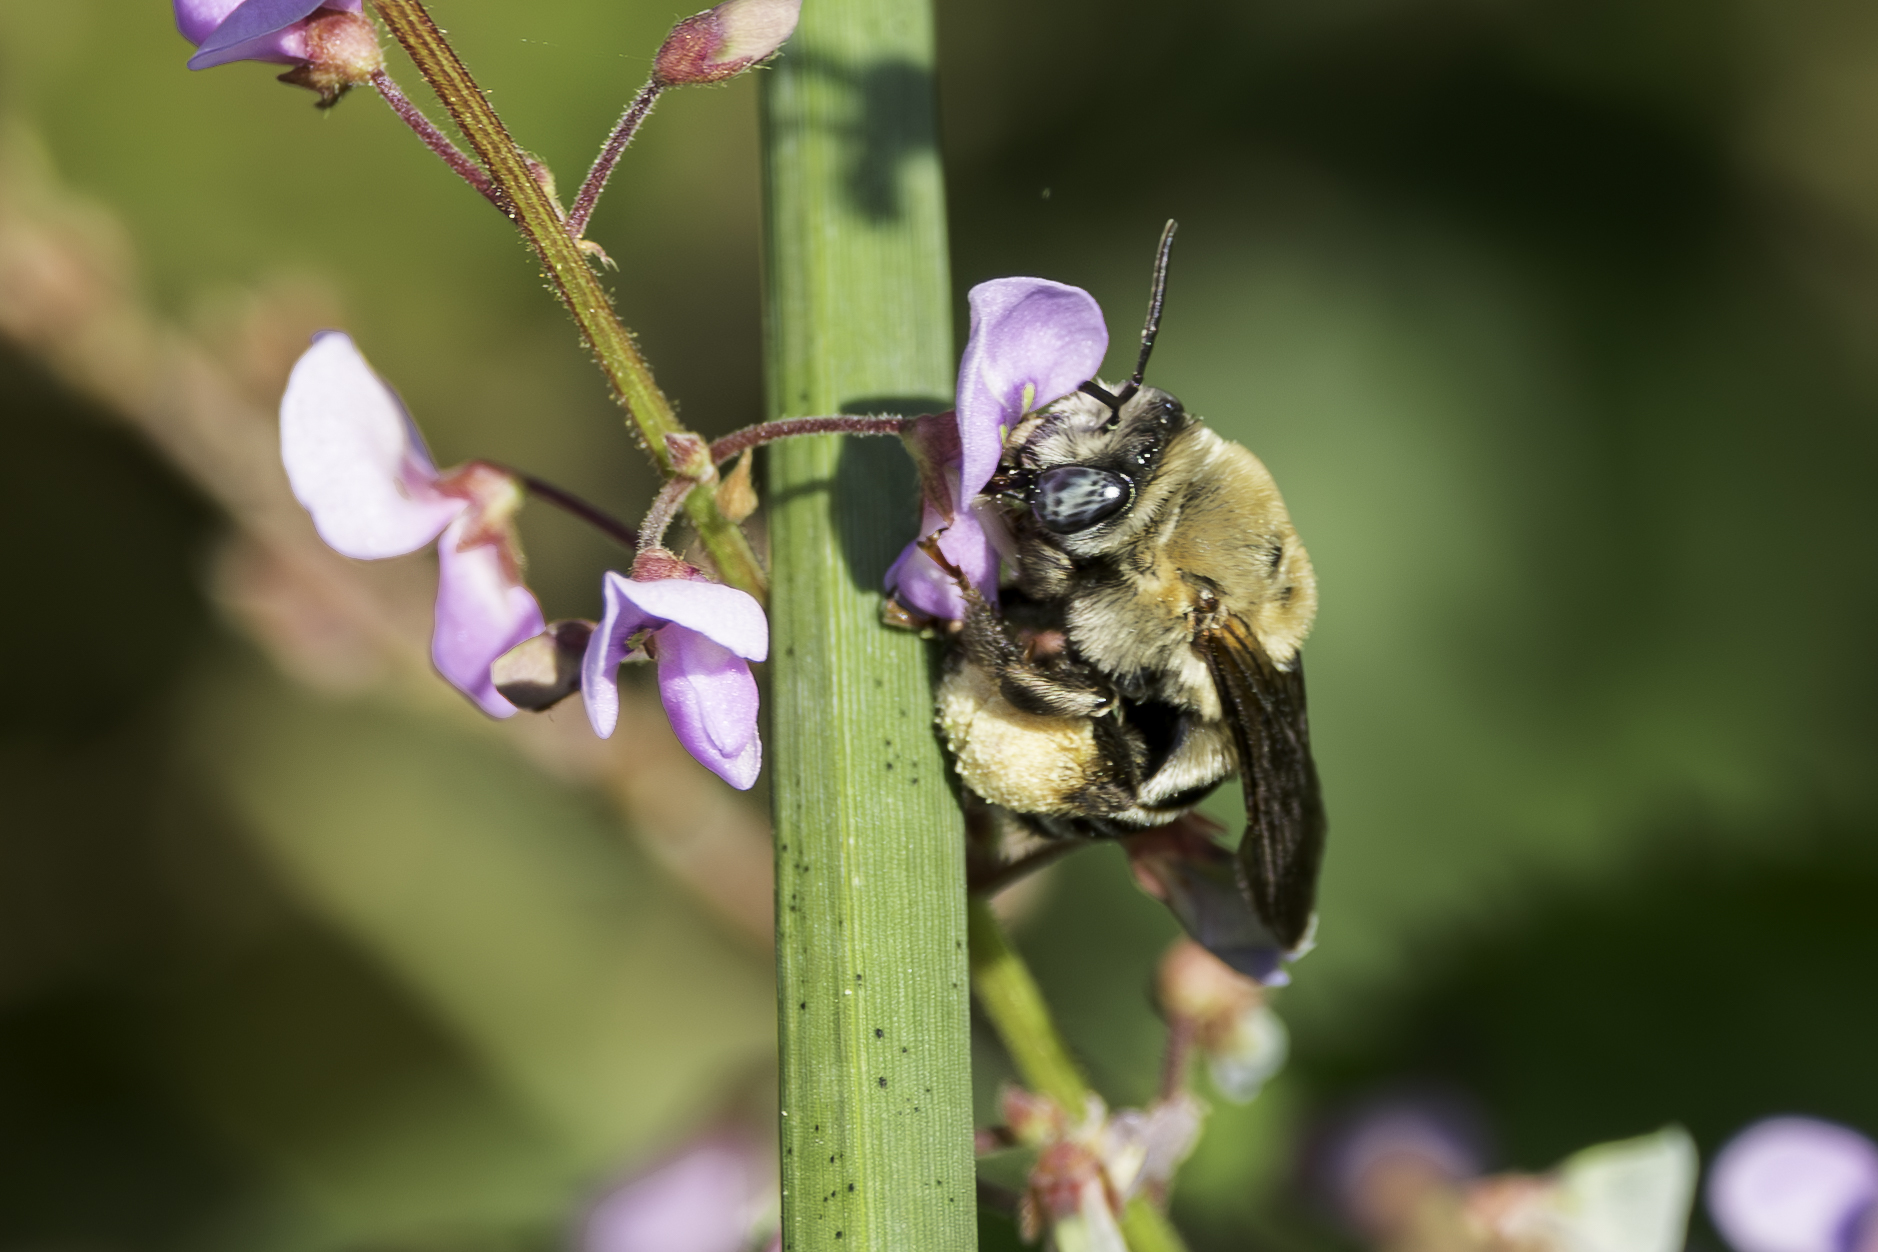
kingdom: Animalia
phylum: Arthropoda
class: Insecta
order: Hymenoptera
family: Apidae
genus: Melissodes
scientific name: Melissodes comptoides
